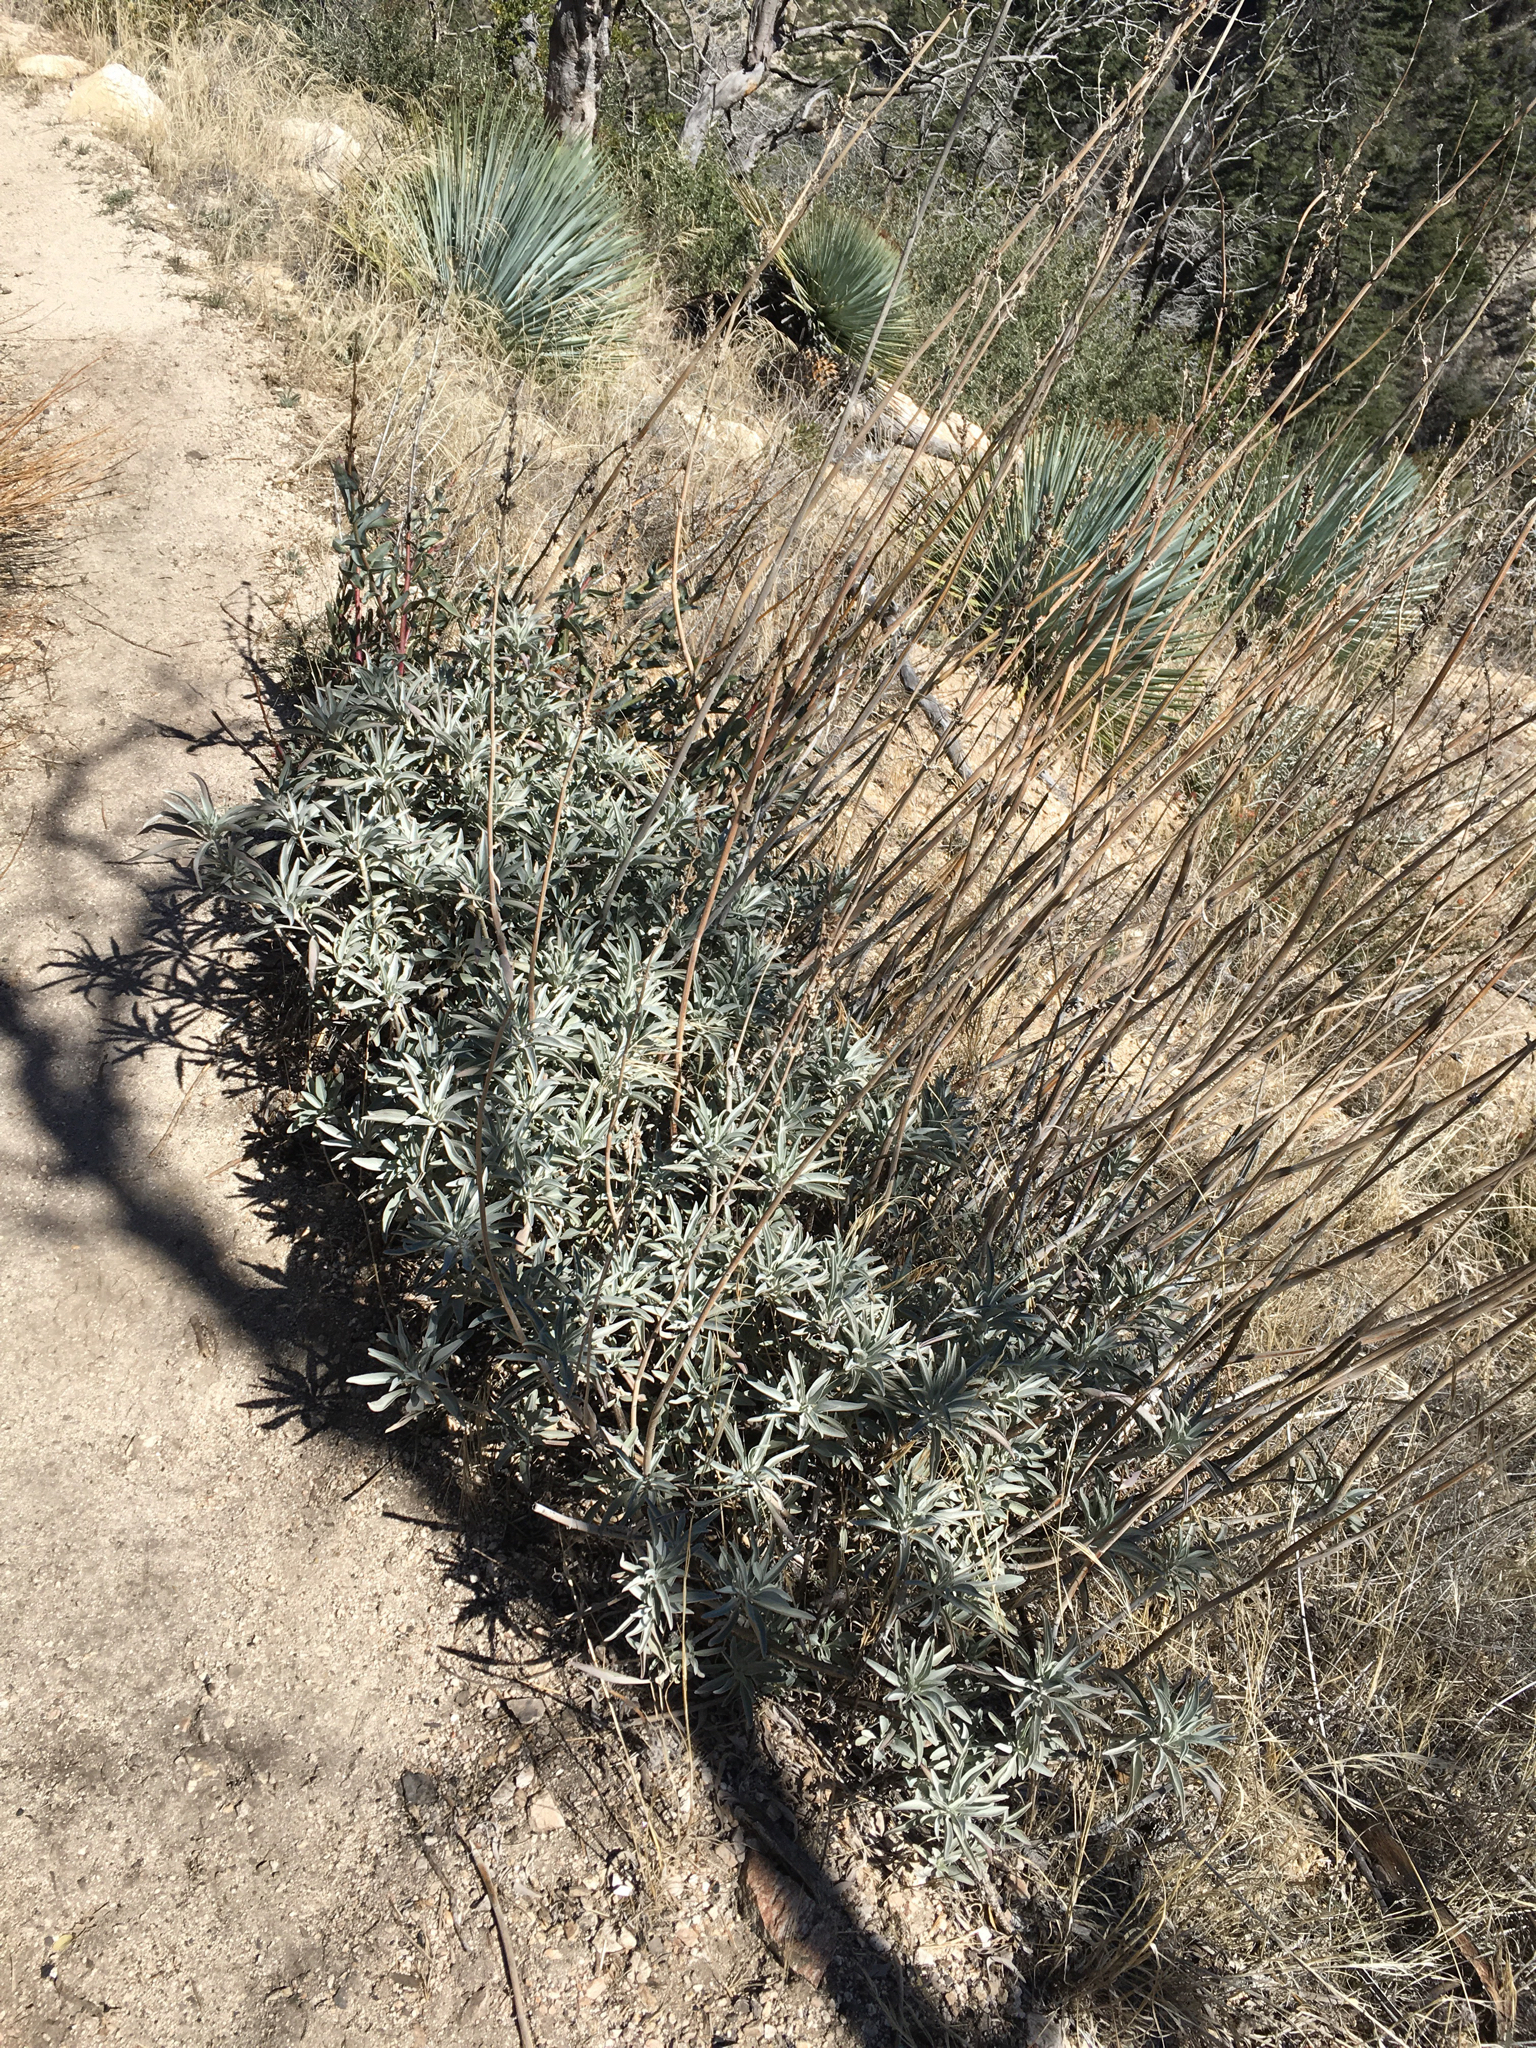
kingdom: Plantae
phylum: Tracheophyta
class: Magnoliopsida
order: Lamiales
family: Lamiaceae
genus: Salvia
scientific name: Salvia apiana
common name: White sage
